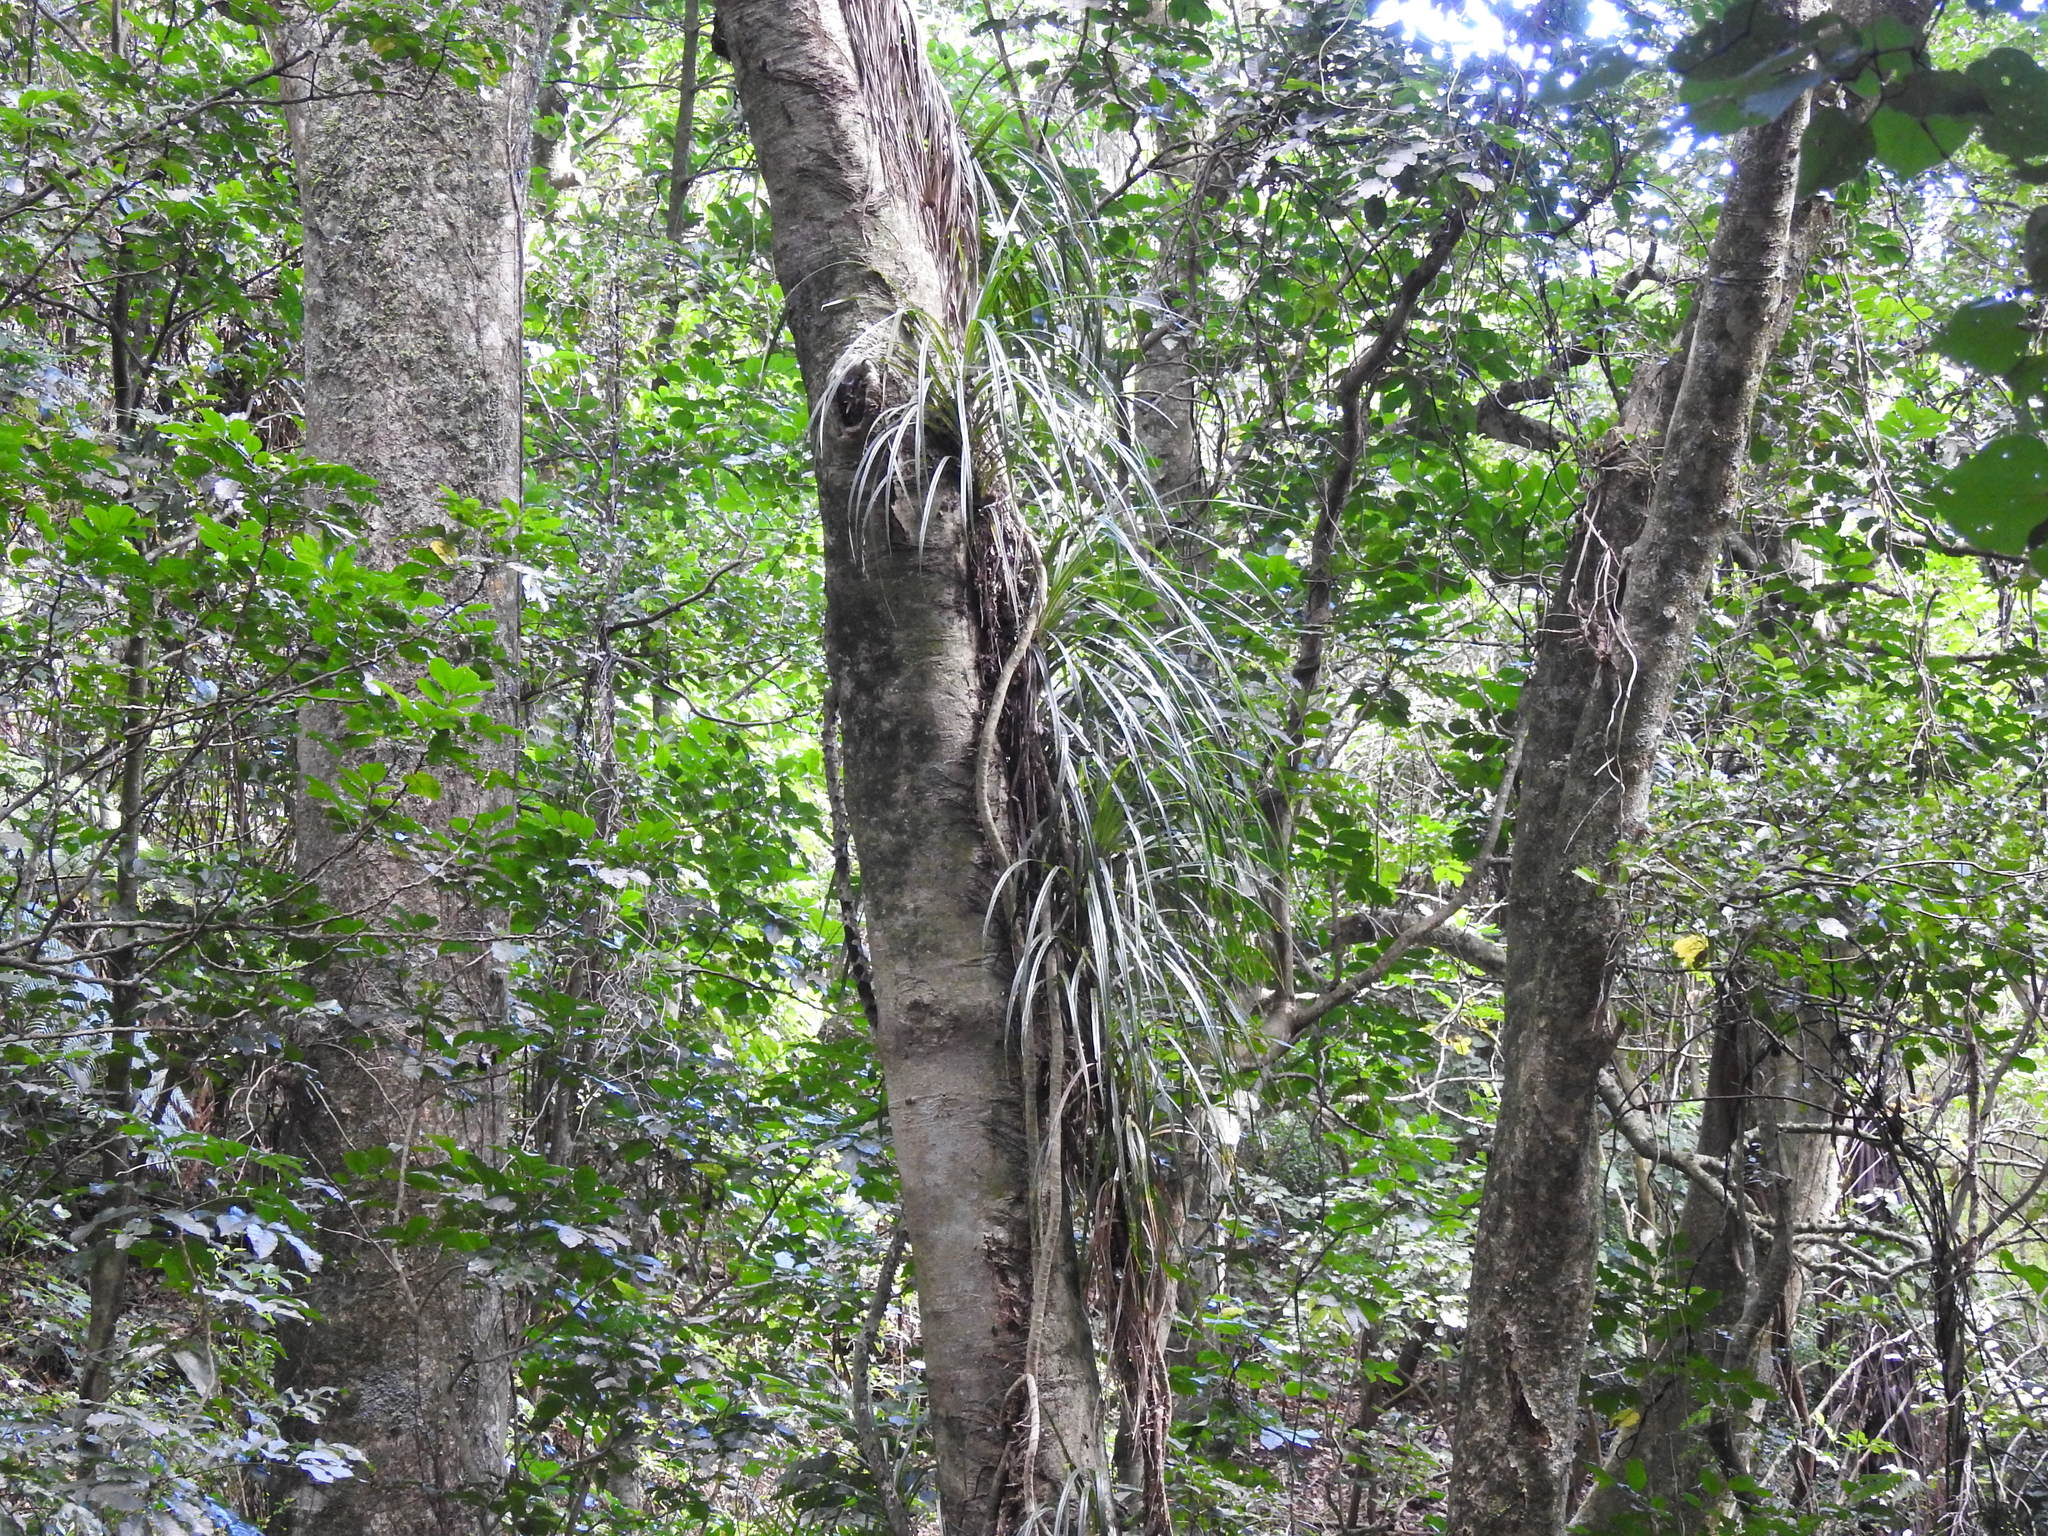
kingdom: Plantae
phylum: Tracheophyta
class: Liliopsida
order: Pandanales
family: Pandanaceae
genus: Freycinetia
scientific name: Freycinetia banksii
